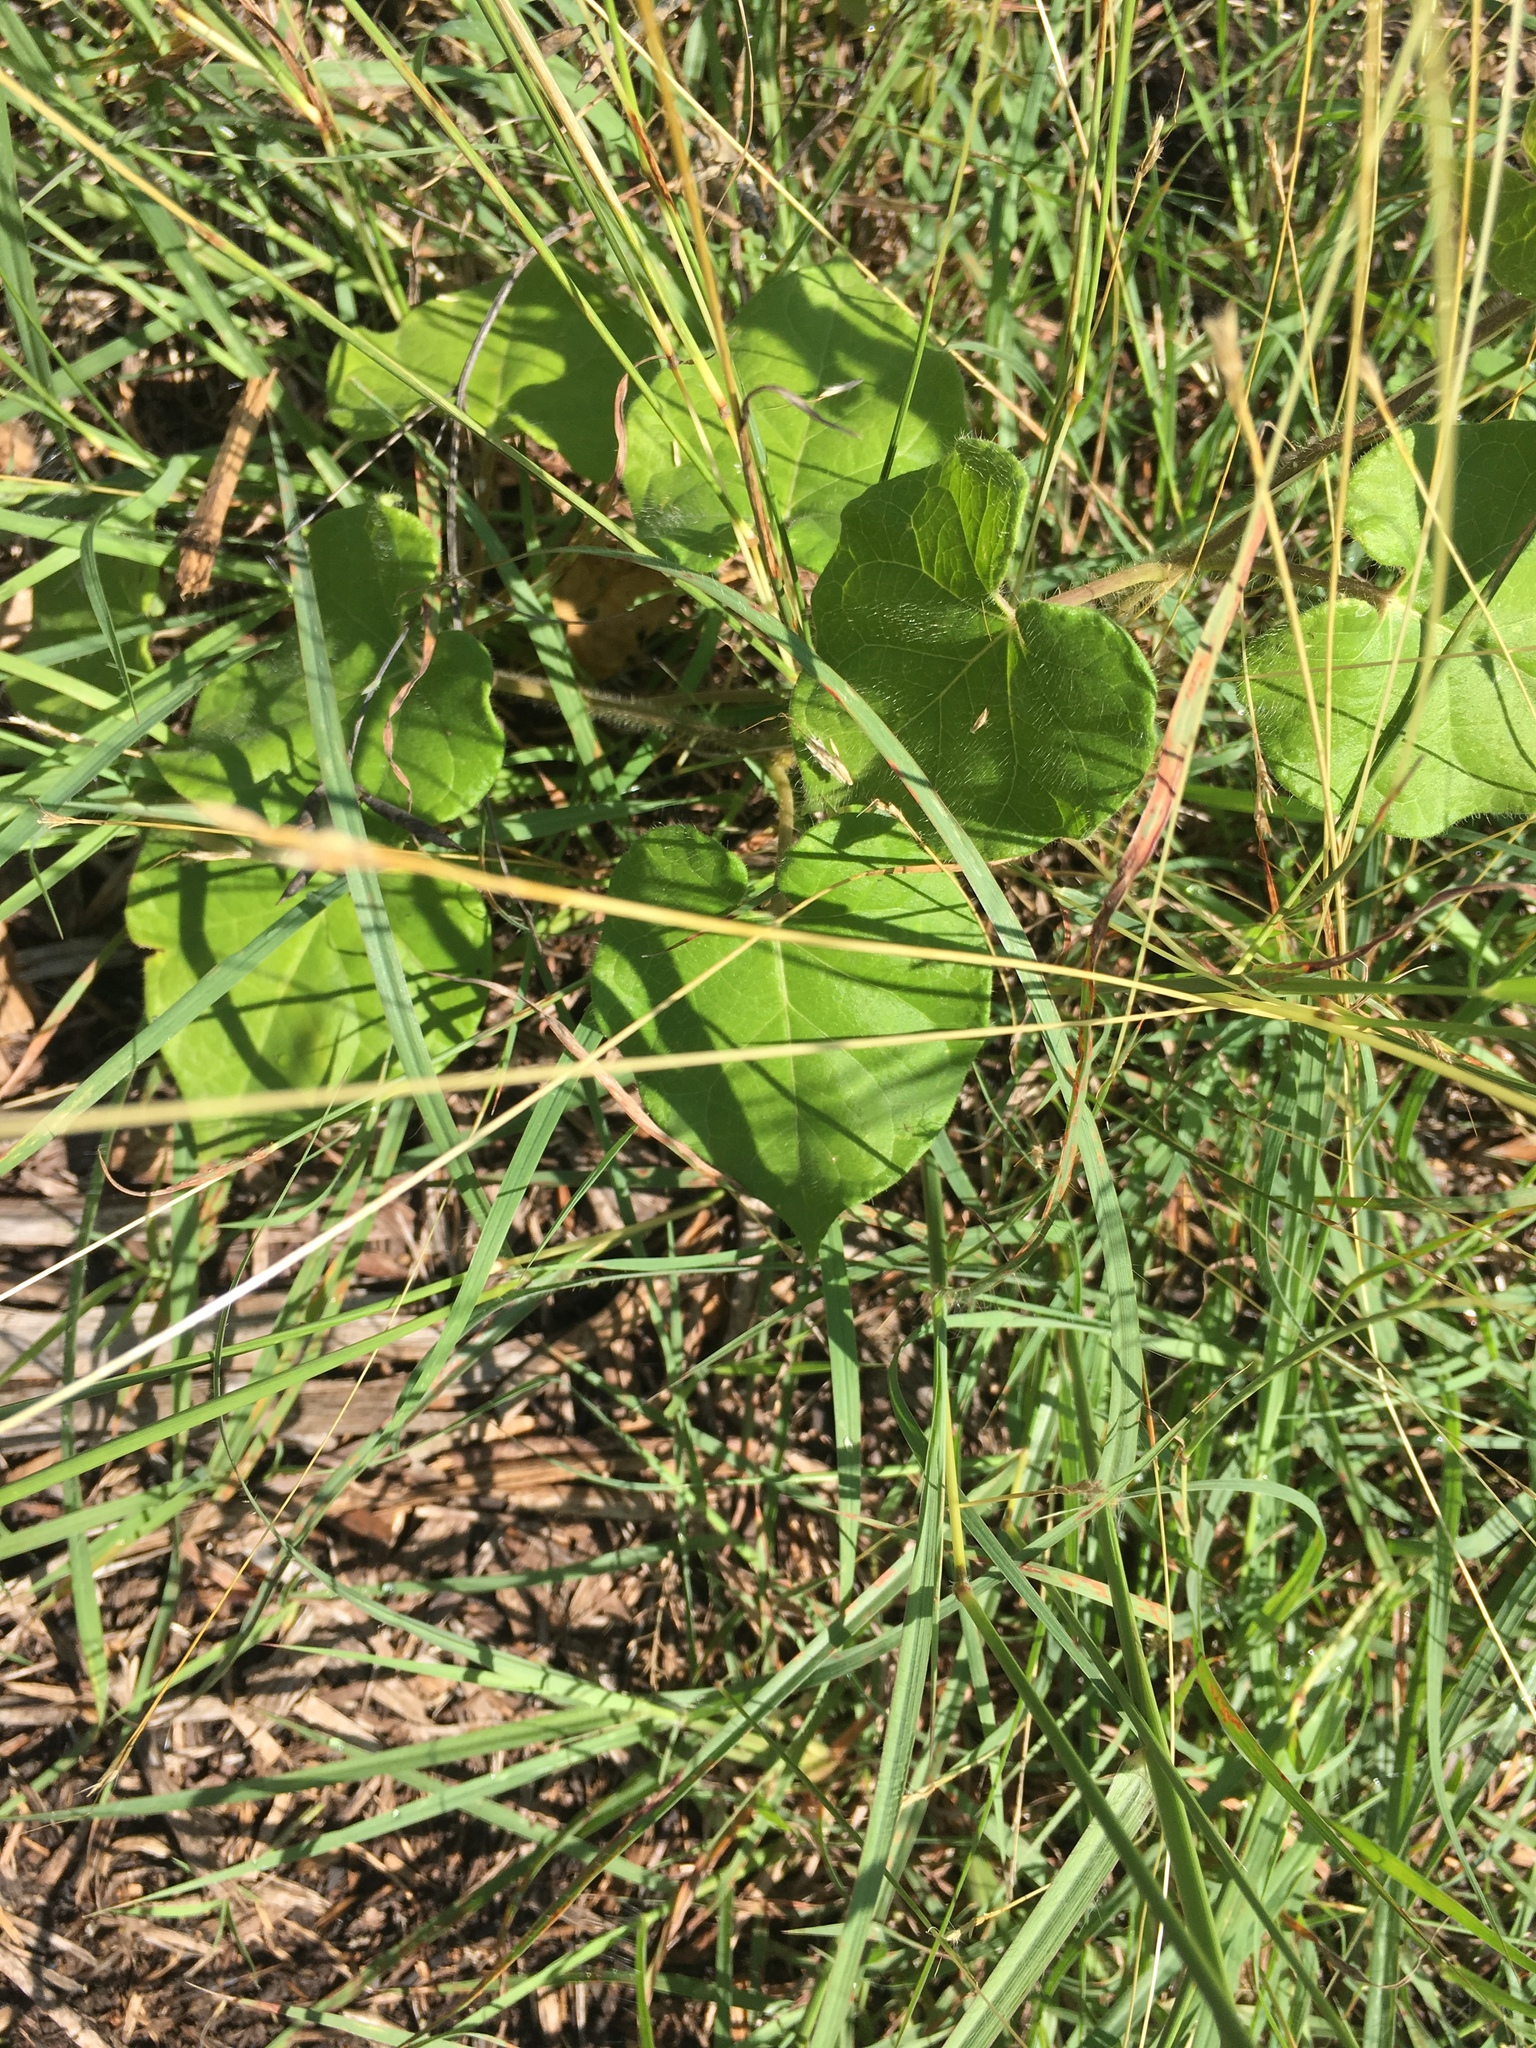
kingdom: Plantae
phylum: Tracheophyta
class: Magnoliopsida
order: Gentianales
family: Apocynaceae
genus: Dictyanthus
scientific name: Dictyanthus reticulatus
